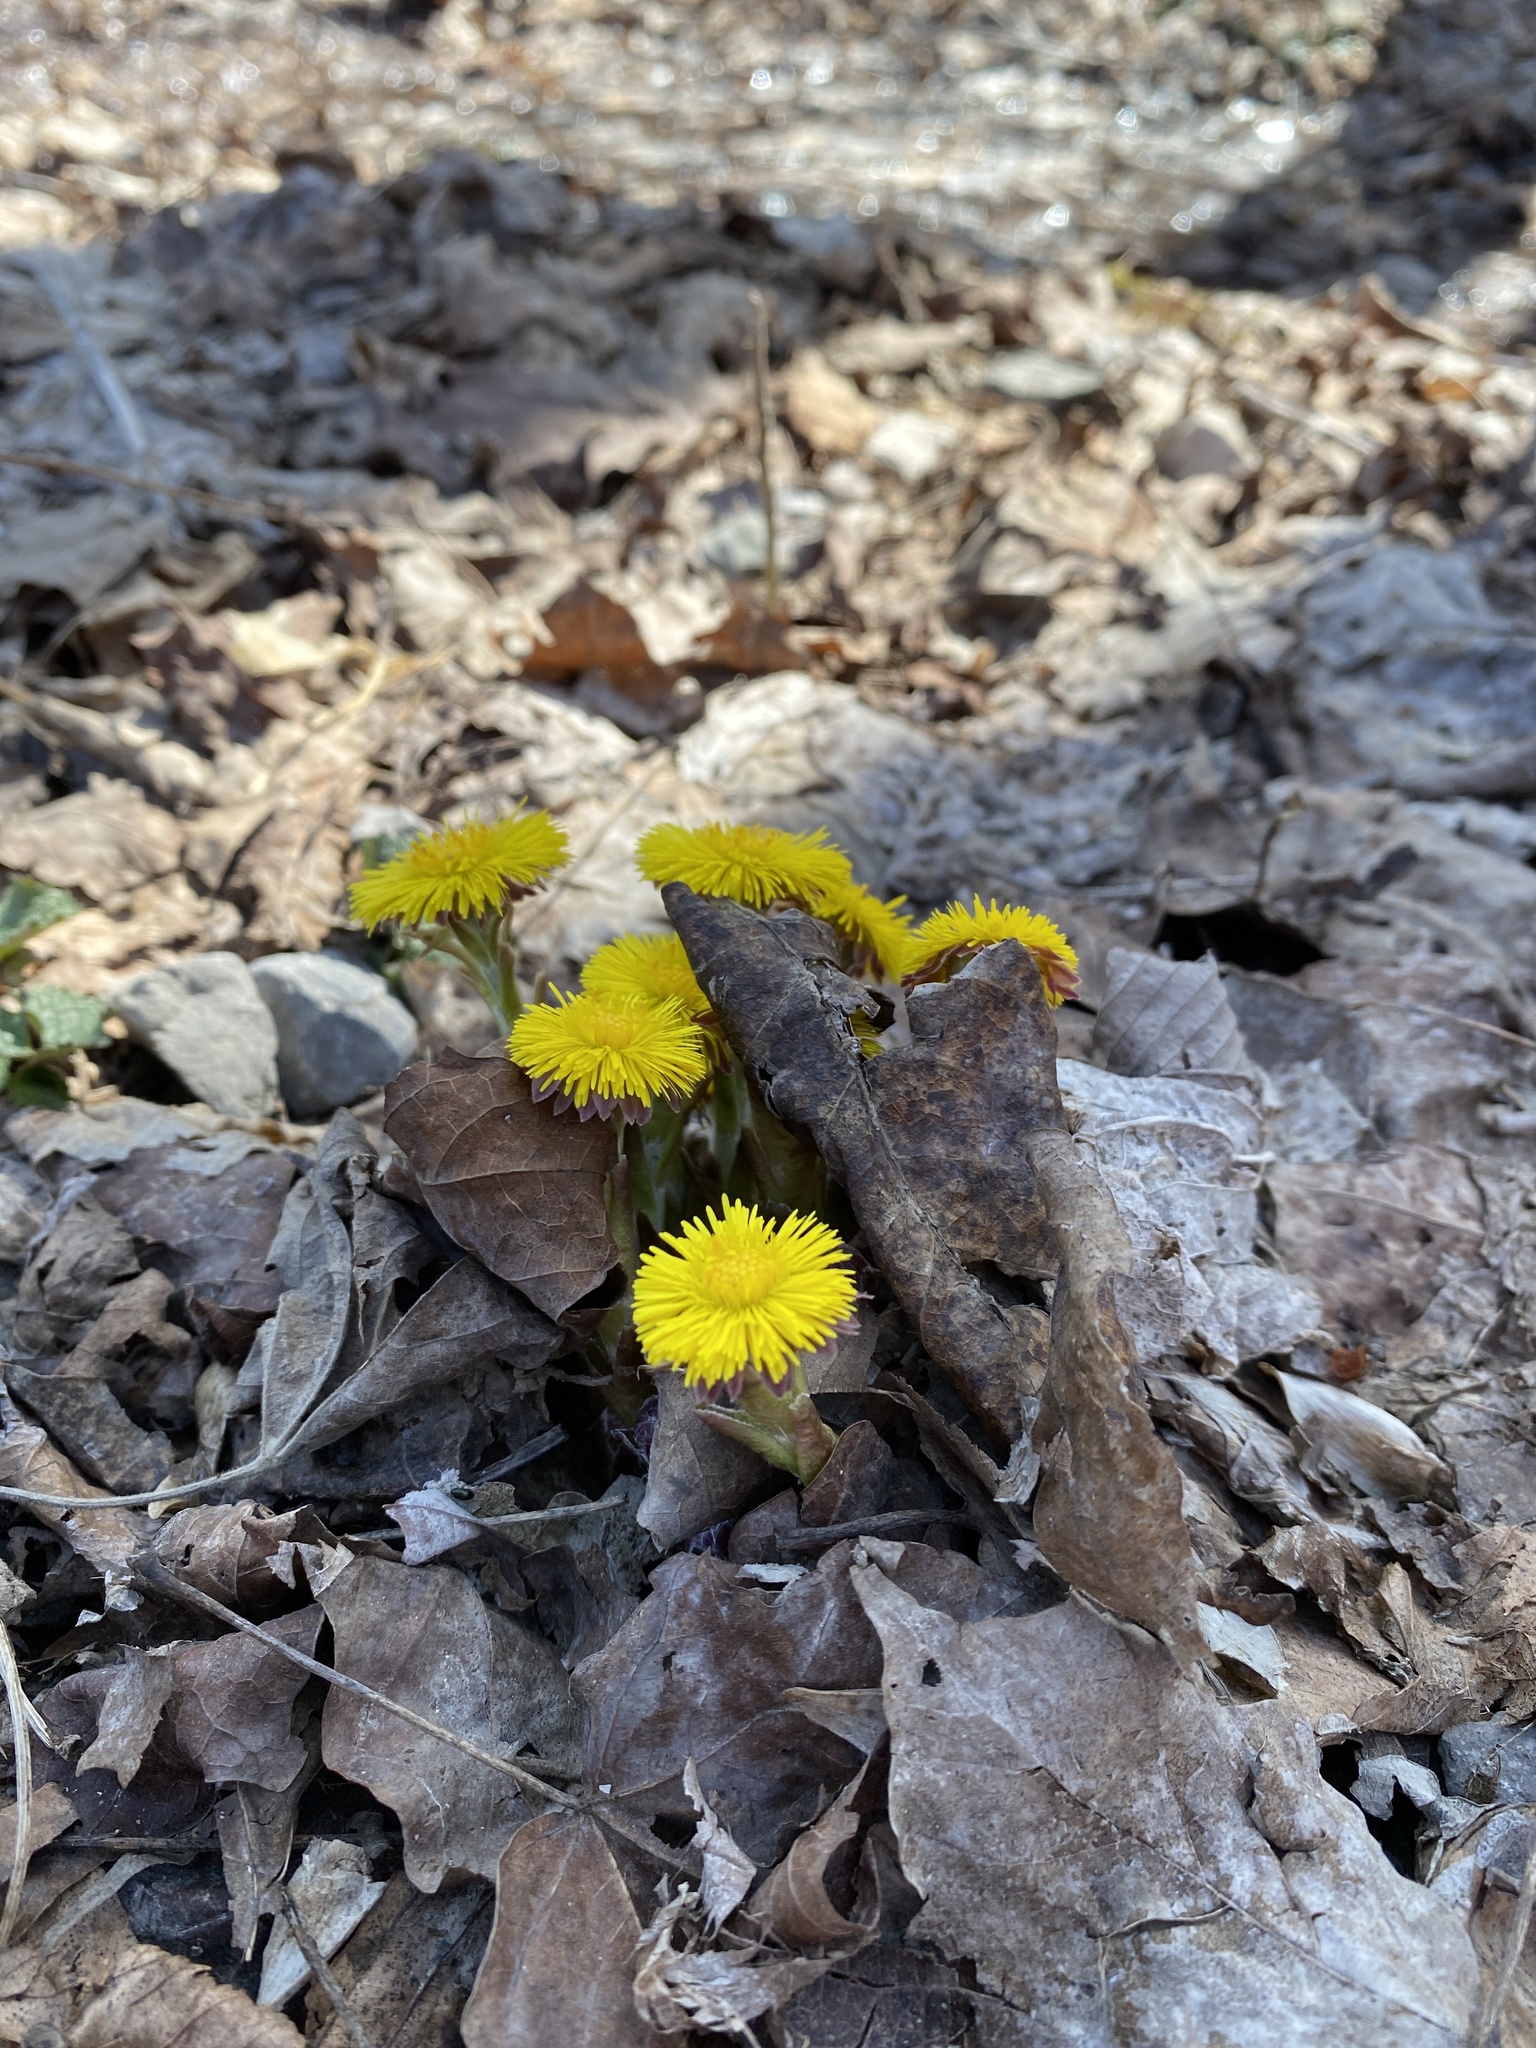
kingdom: Plantae
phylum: Tracheophyta
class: Magnoliopsida
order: Asterales
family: Asteraceae
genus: Tussilago
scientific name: Tussilago farfara
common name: Coltsfoot
